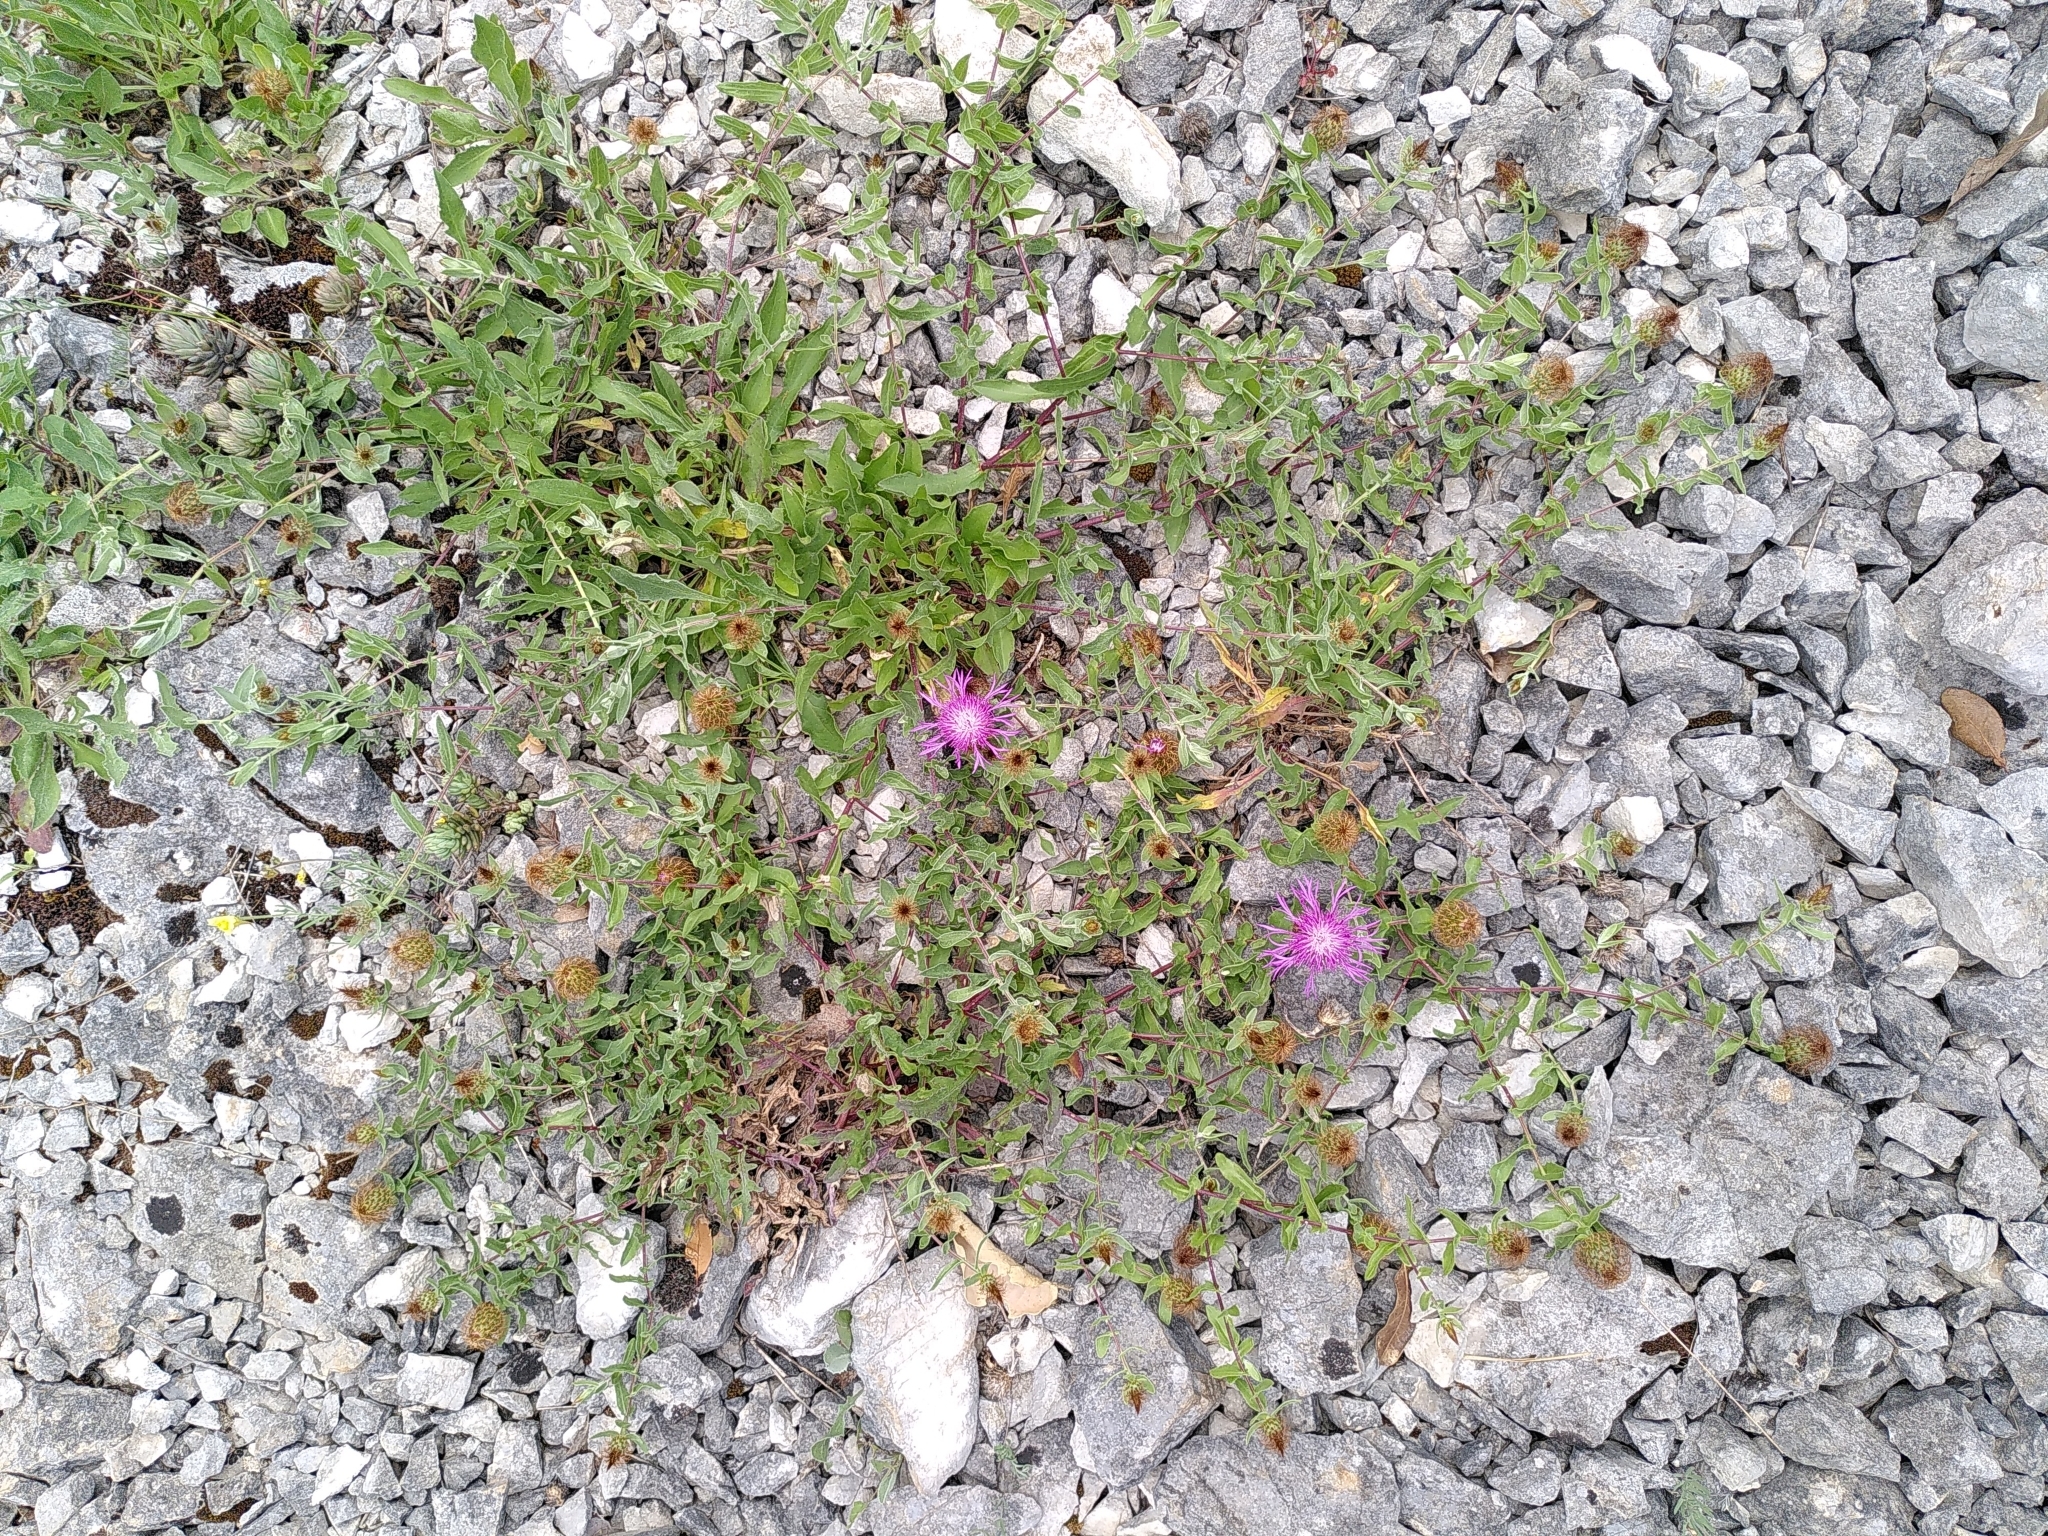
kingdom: Plantae
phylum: Tracheophyta
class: Magnoliopsida
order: Asterales
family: Asteraceae
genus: Centaurea
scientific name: Centaurea pectinata
